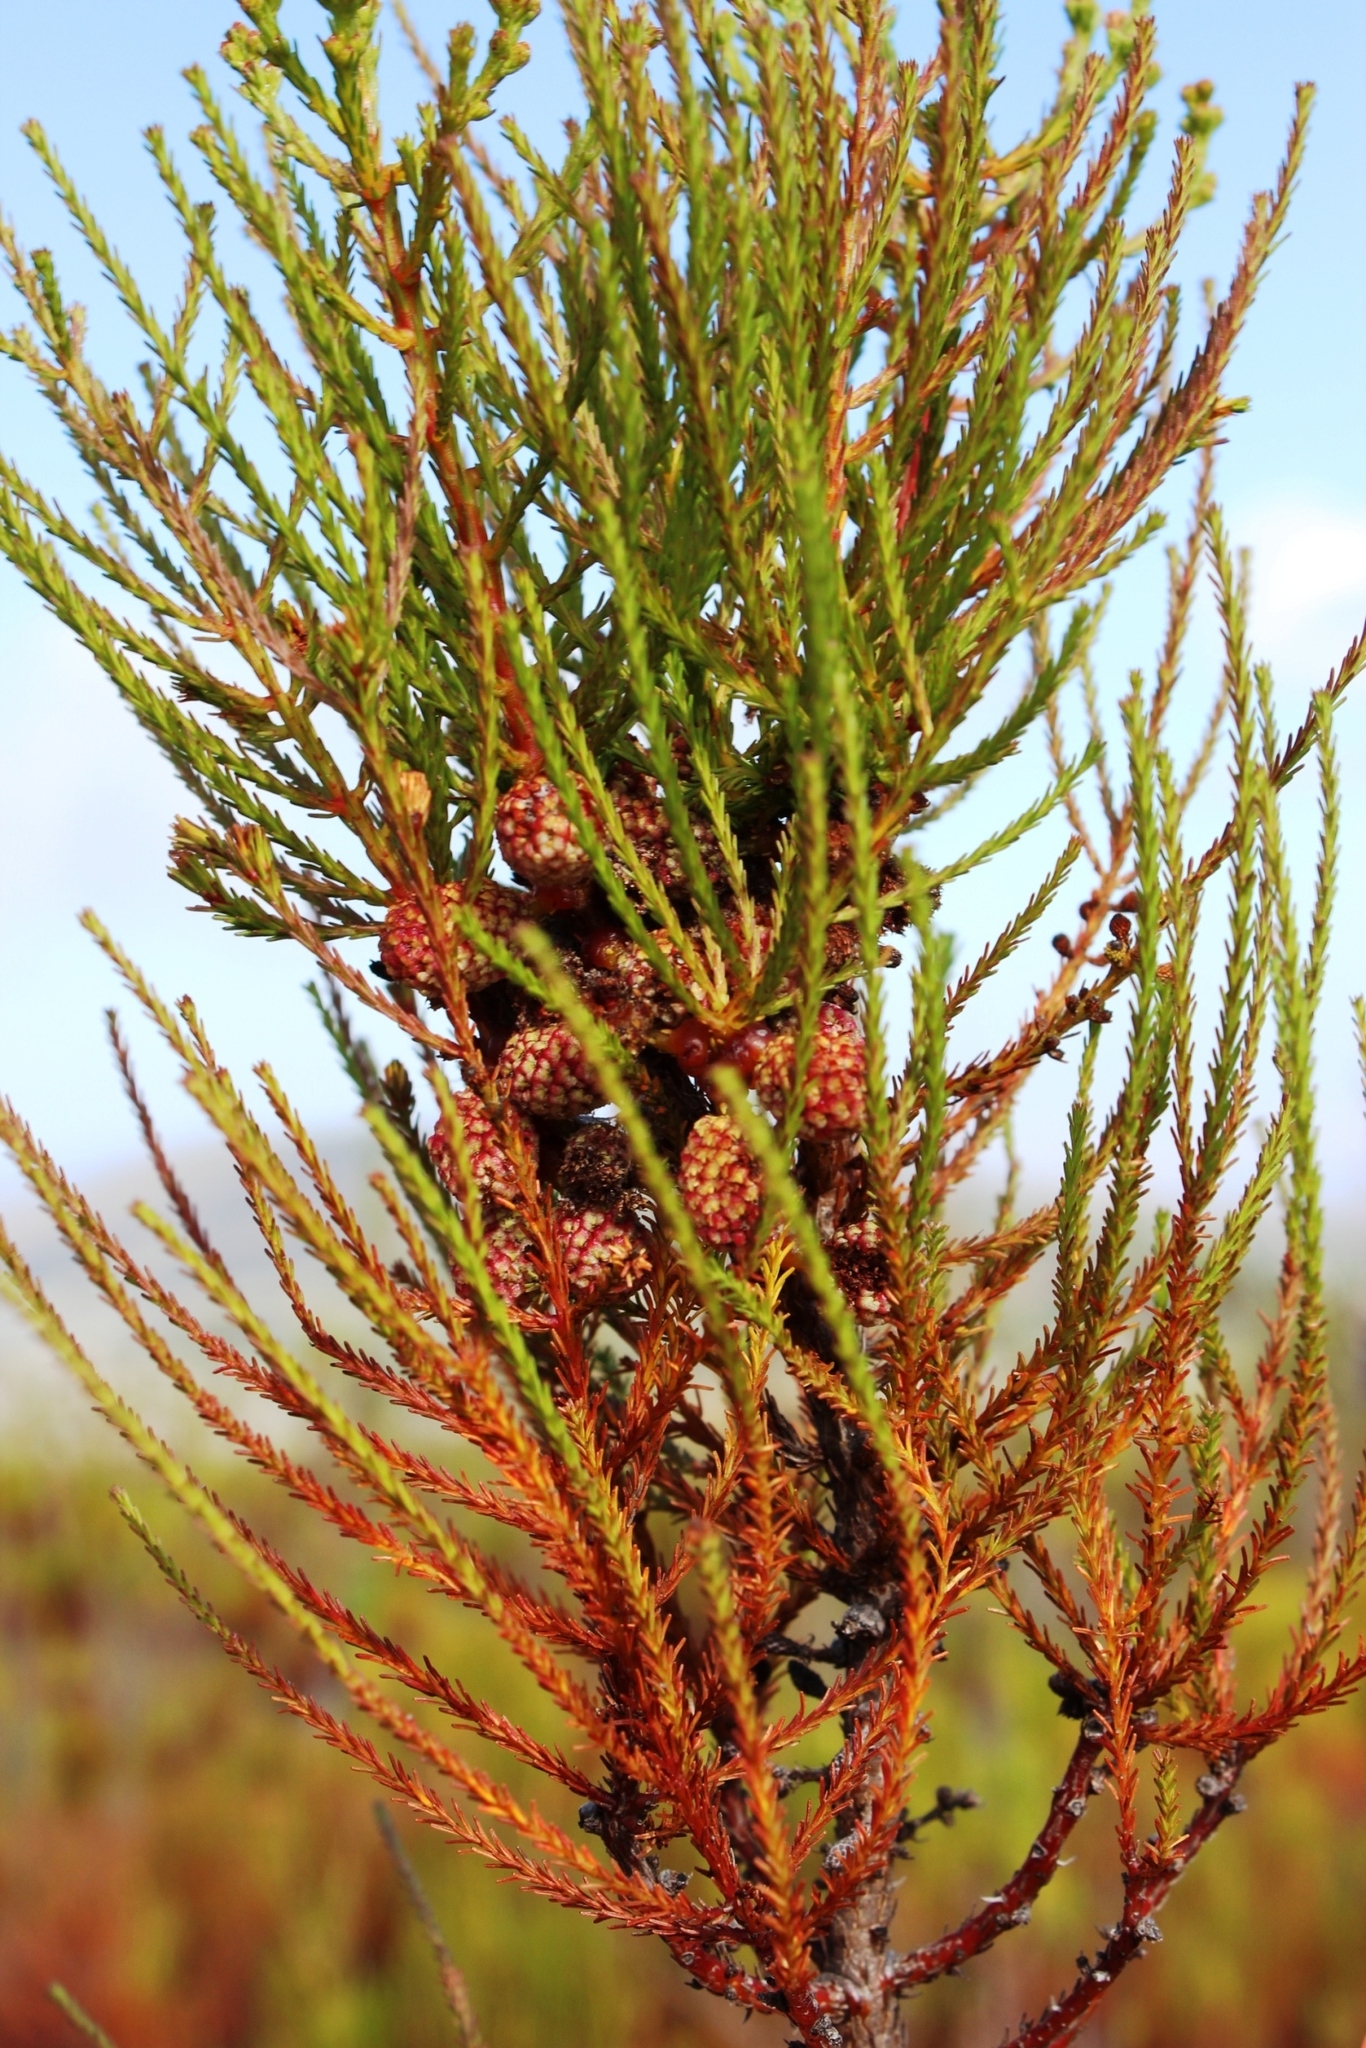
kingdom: Plantae
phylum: Tracheophyta
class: Magnoliopsida
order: Bruniales
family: Bruniaceae
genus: Berzelia
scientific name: Berzelia abrotanoides
